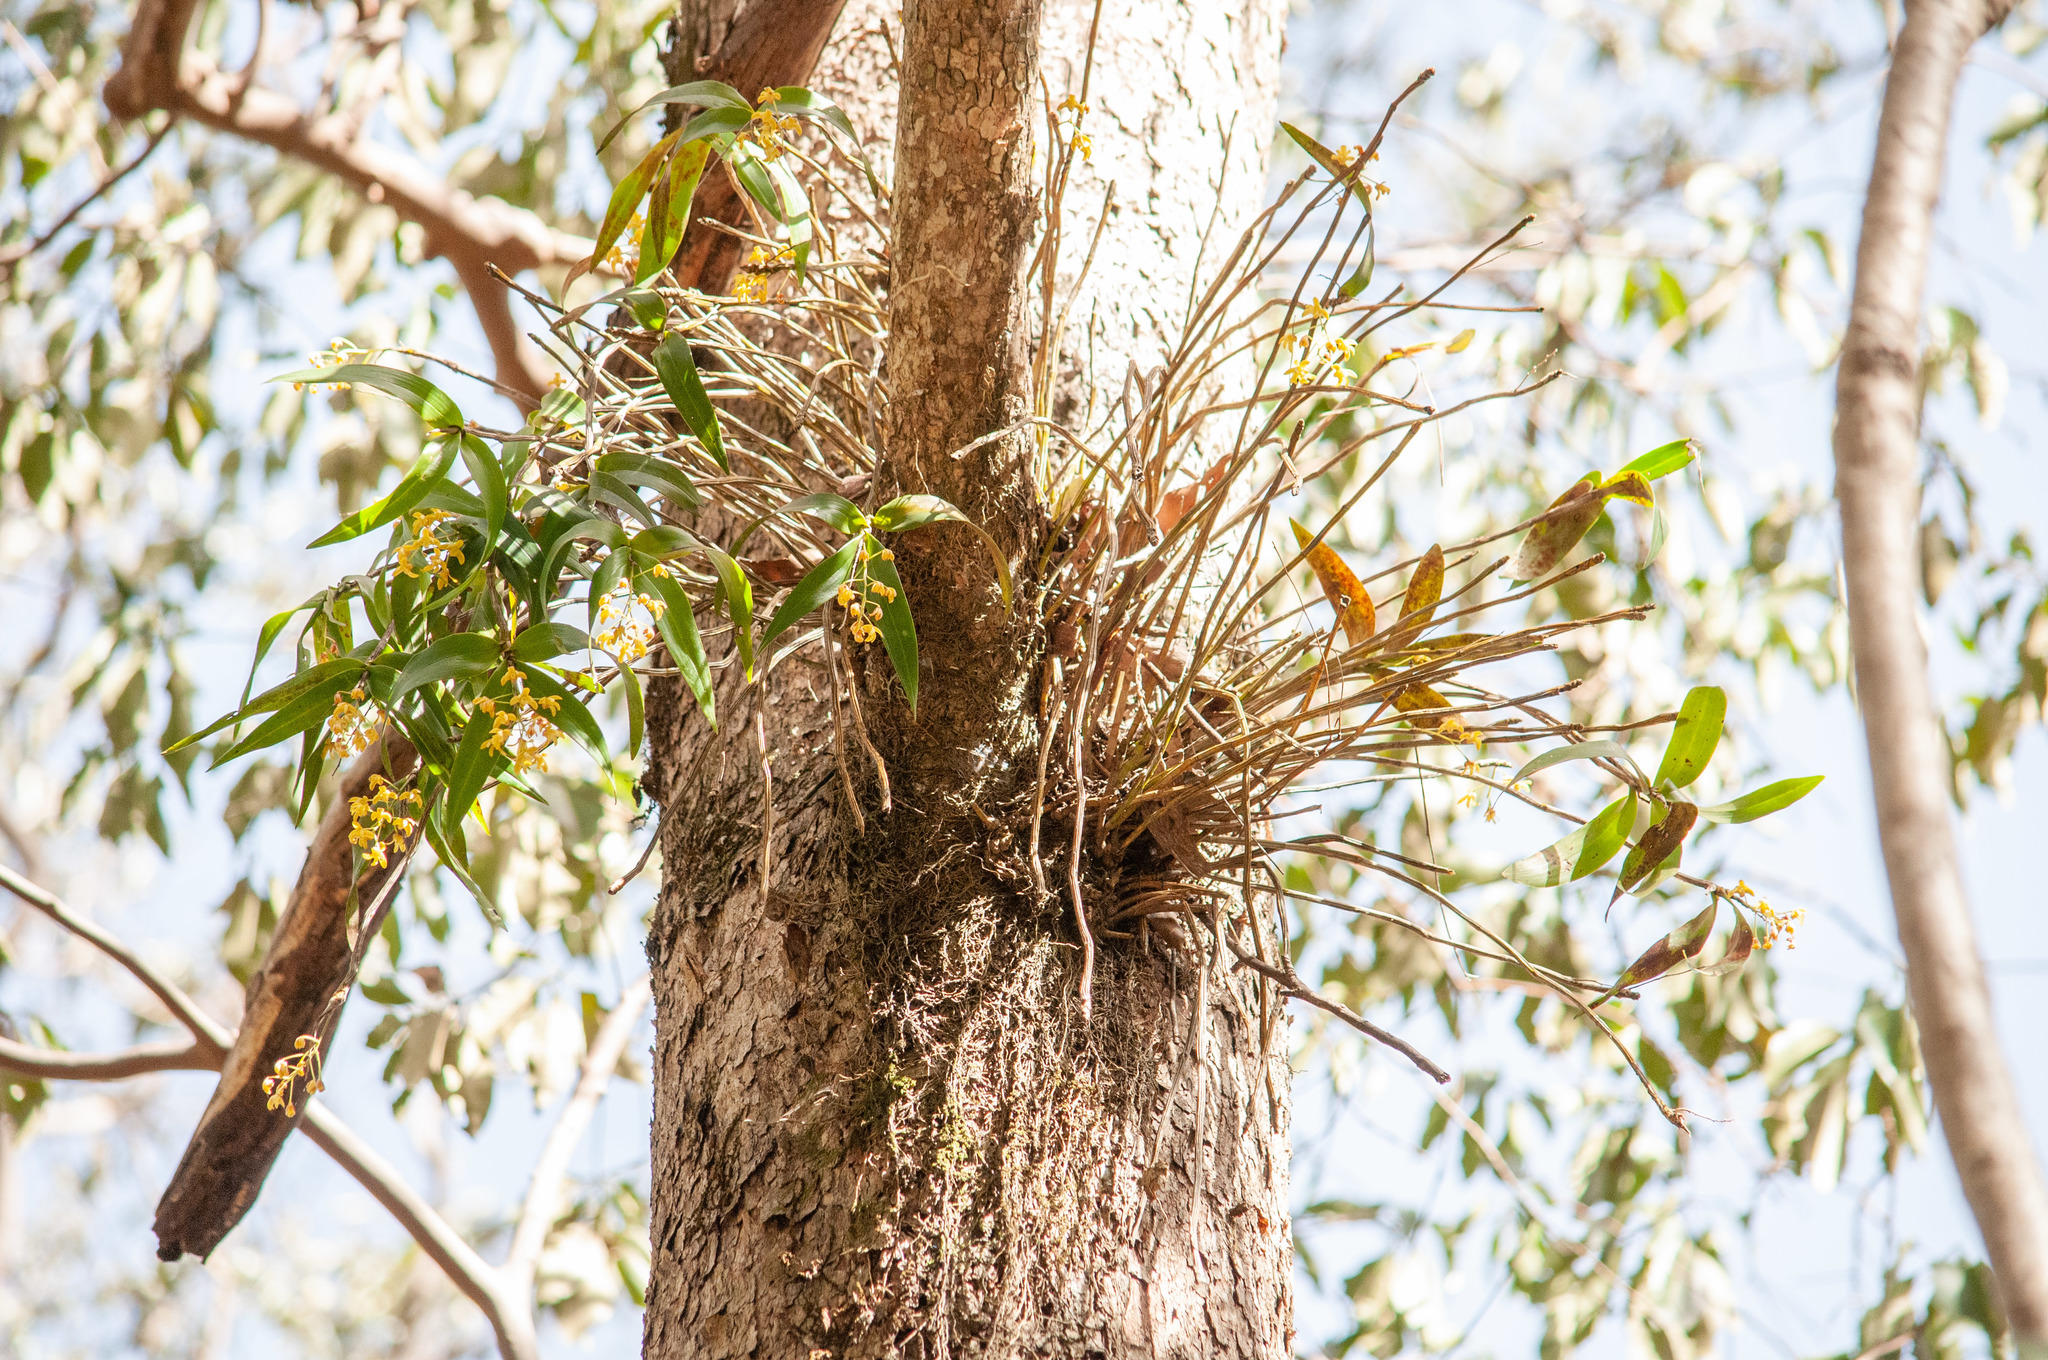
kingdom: Plantae
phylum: Tracheophyta
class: Liliopsida
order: Asparagales
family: Orchidaceae
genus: Dendrobium
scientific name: Dendrobium gracilicaule
